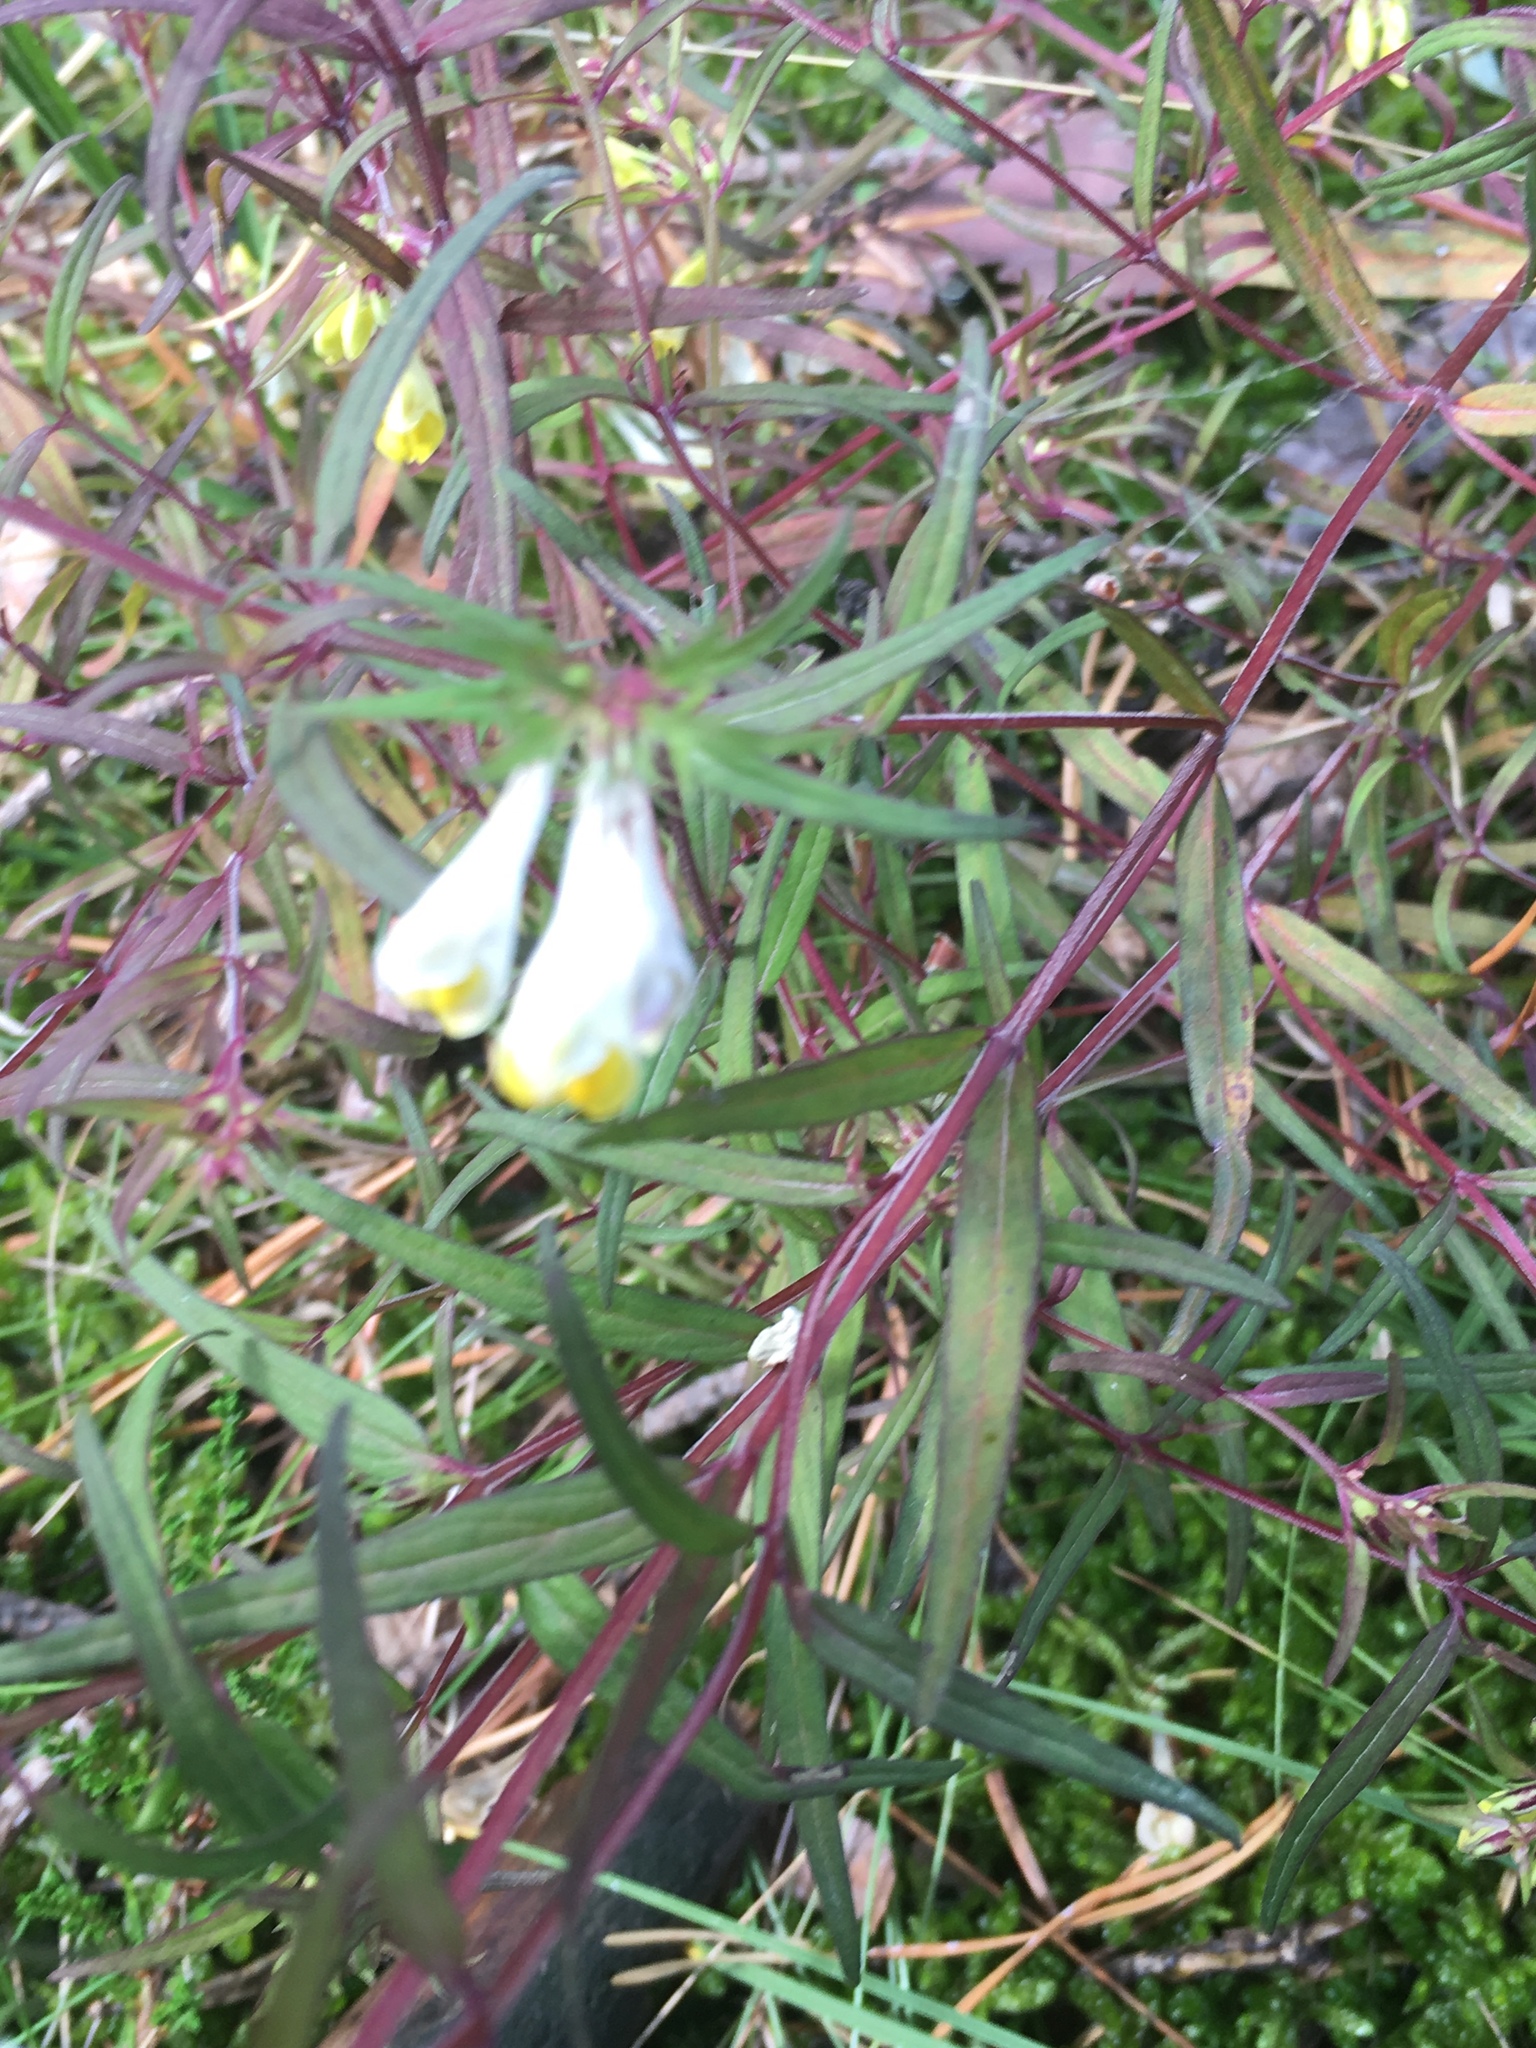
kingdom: Plantae
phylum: Tracheophyta
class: Magnoliopsida
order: Lamiales
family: Orobanchaceae
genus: Melampyrum
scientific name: Melampyrum pratense
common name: Common cow-wheat
